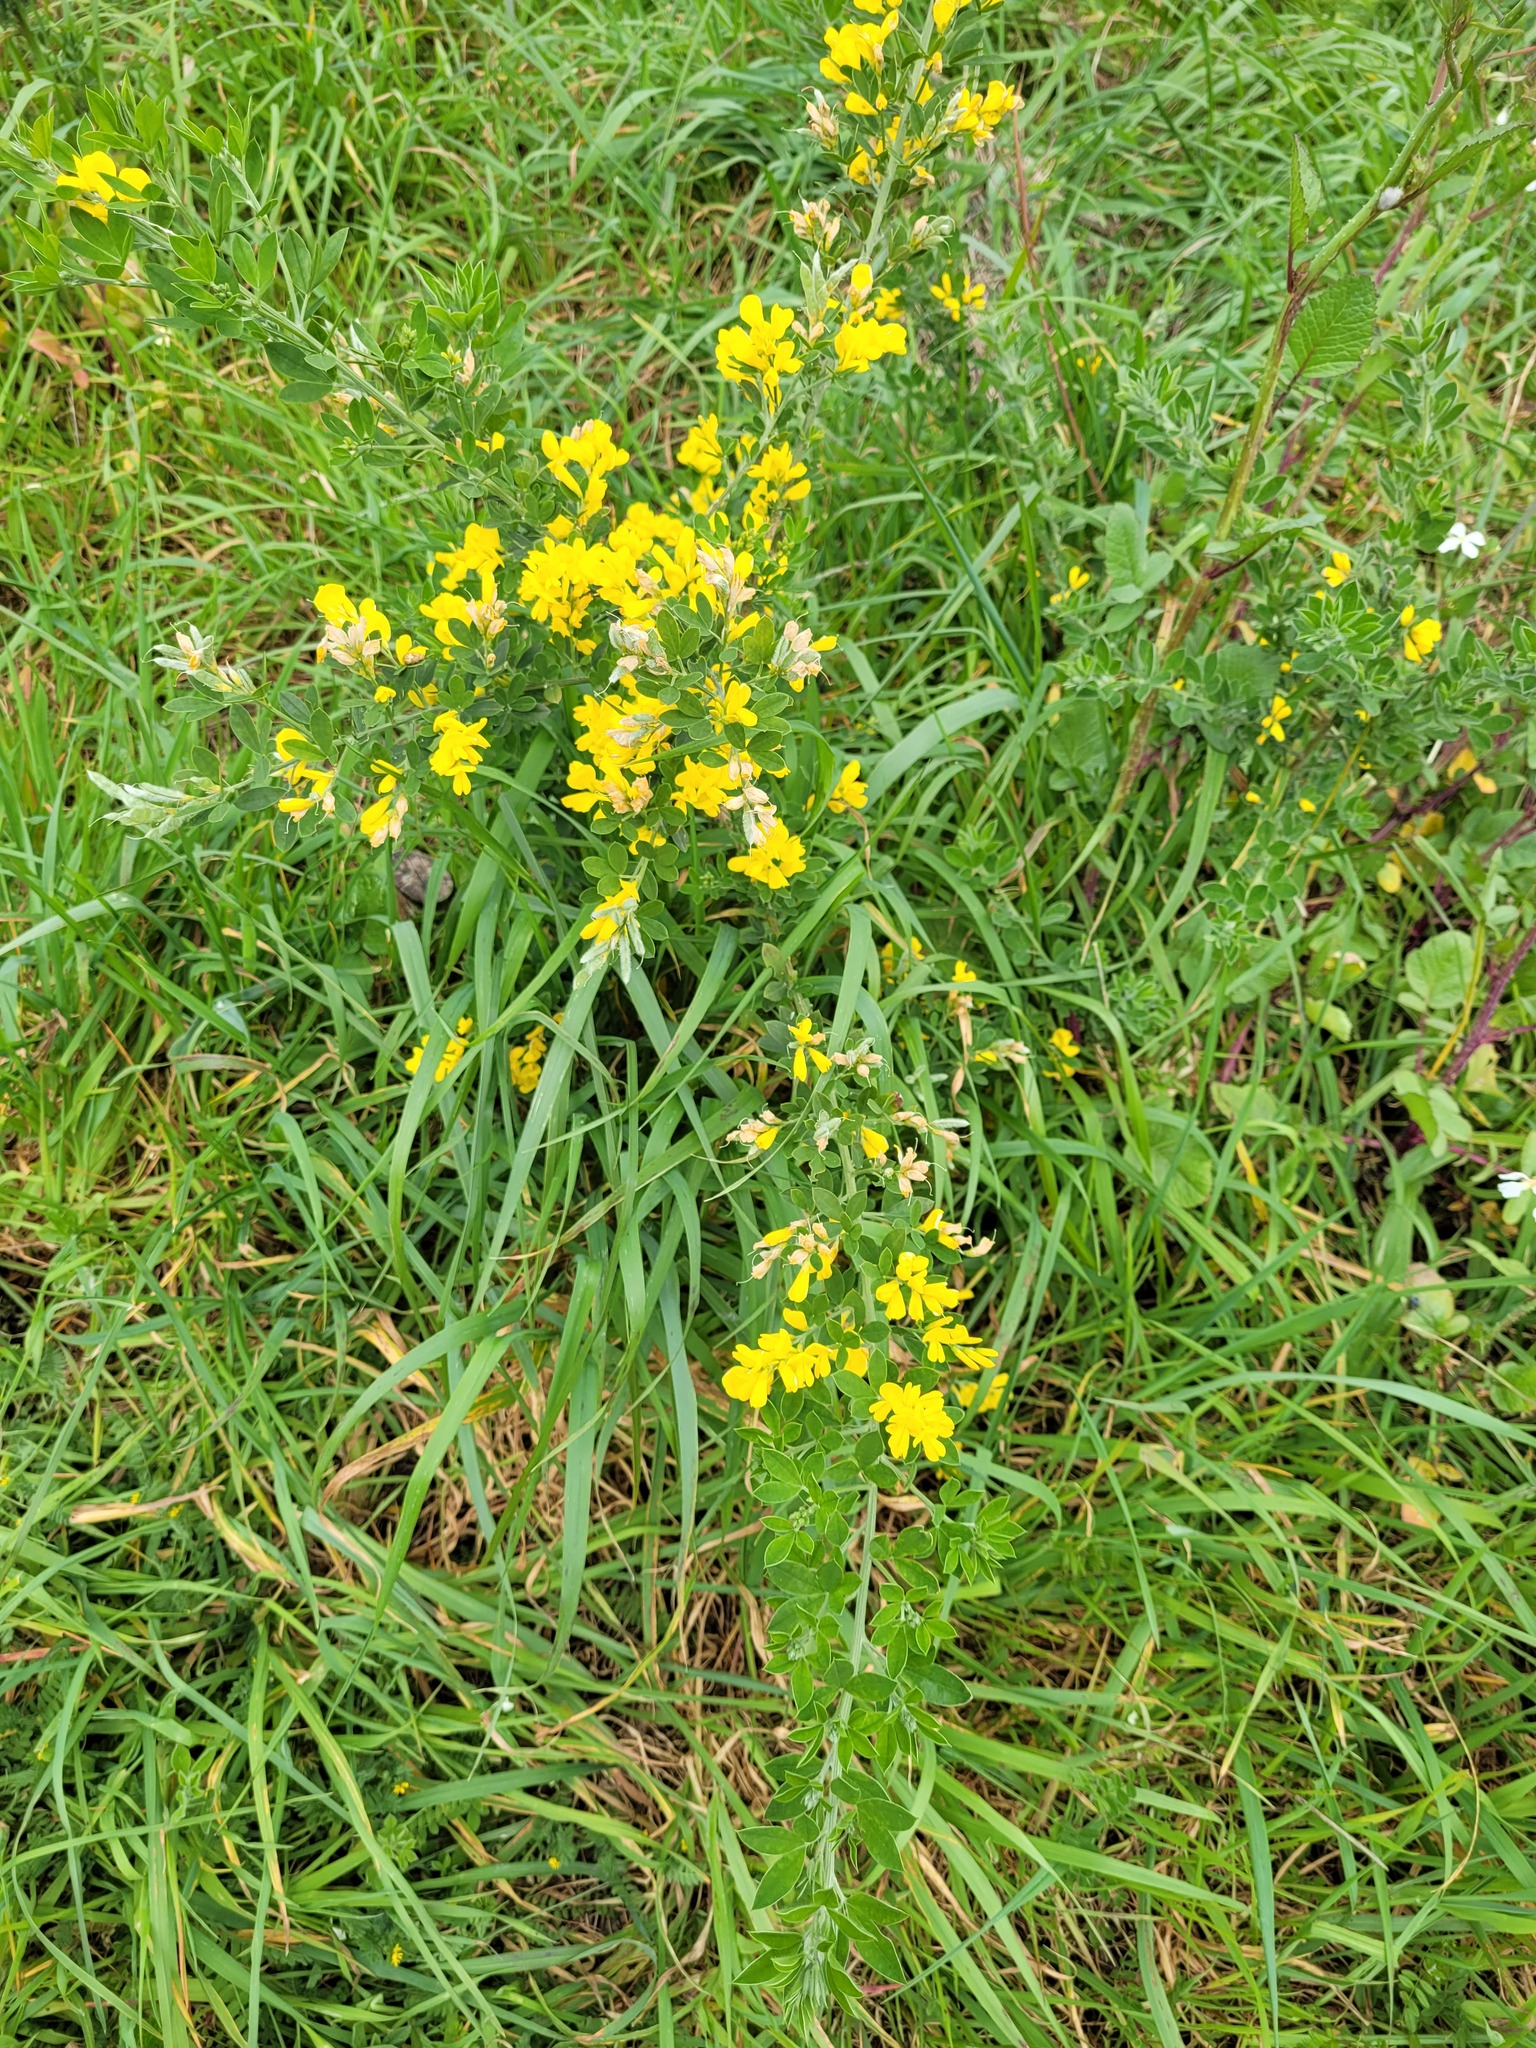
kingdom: Plantae
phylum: Tracheophyta
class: Magnoliopsida
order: Fabales
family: Fabaceae
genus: Genista
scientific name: Genista monspessulana
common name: Montpellier broom
